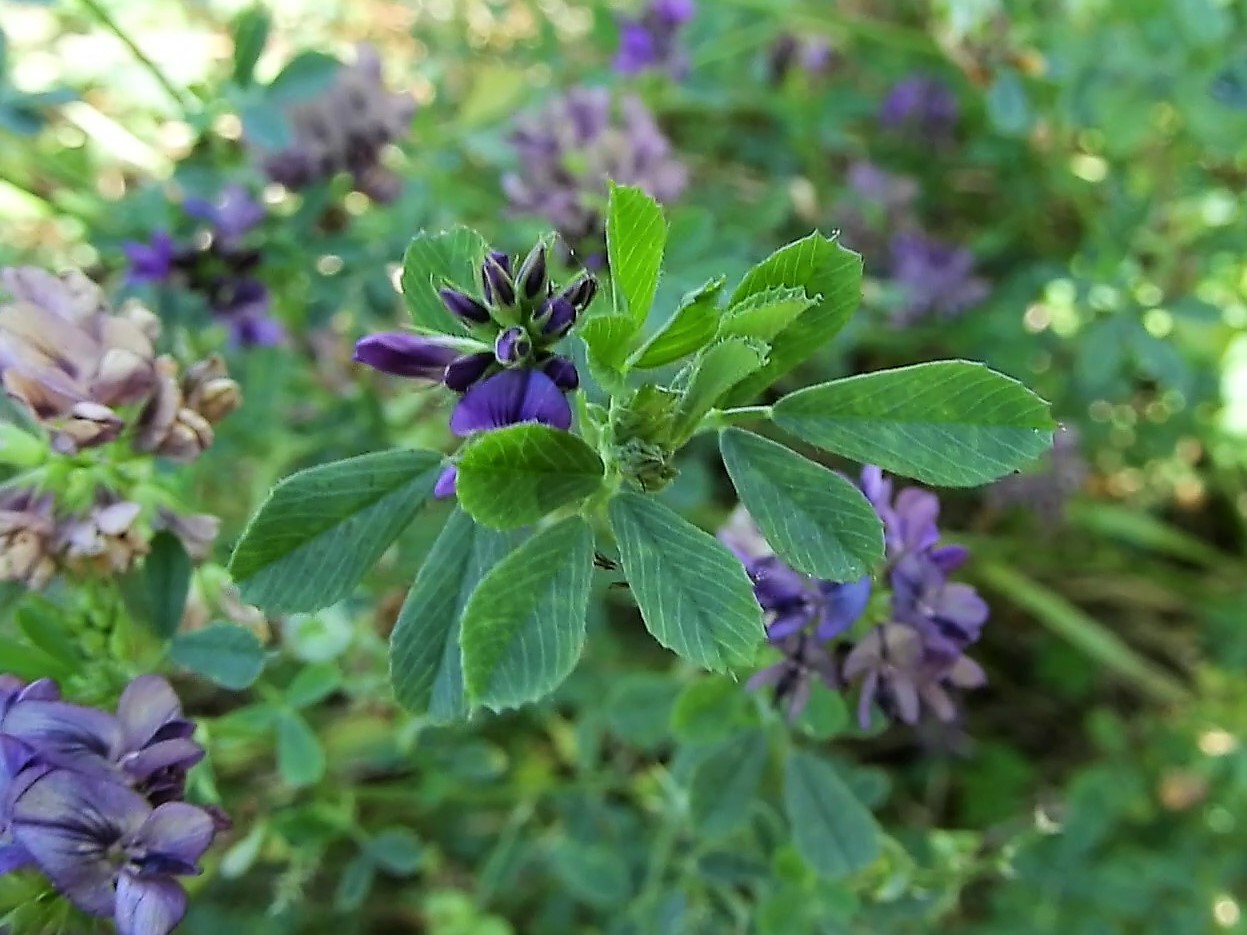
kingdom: Plantae
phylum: Tracheophyta
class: Magnoliopsida
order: Fabales
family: Fabaceae
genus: Medicago
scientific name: Medicago sativa
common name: Alfalfa
